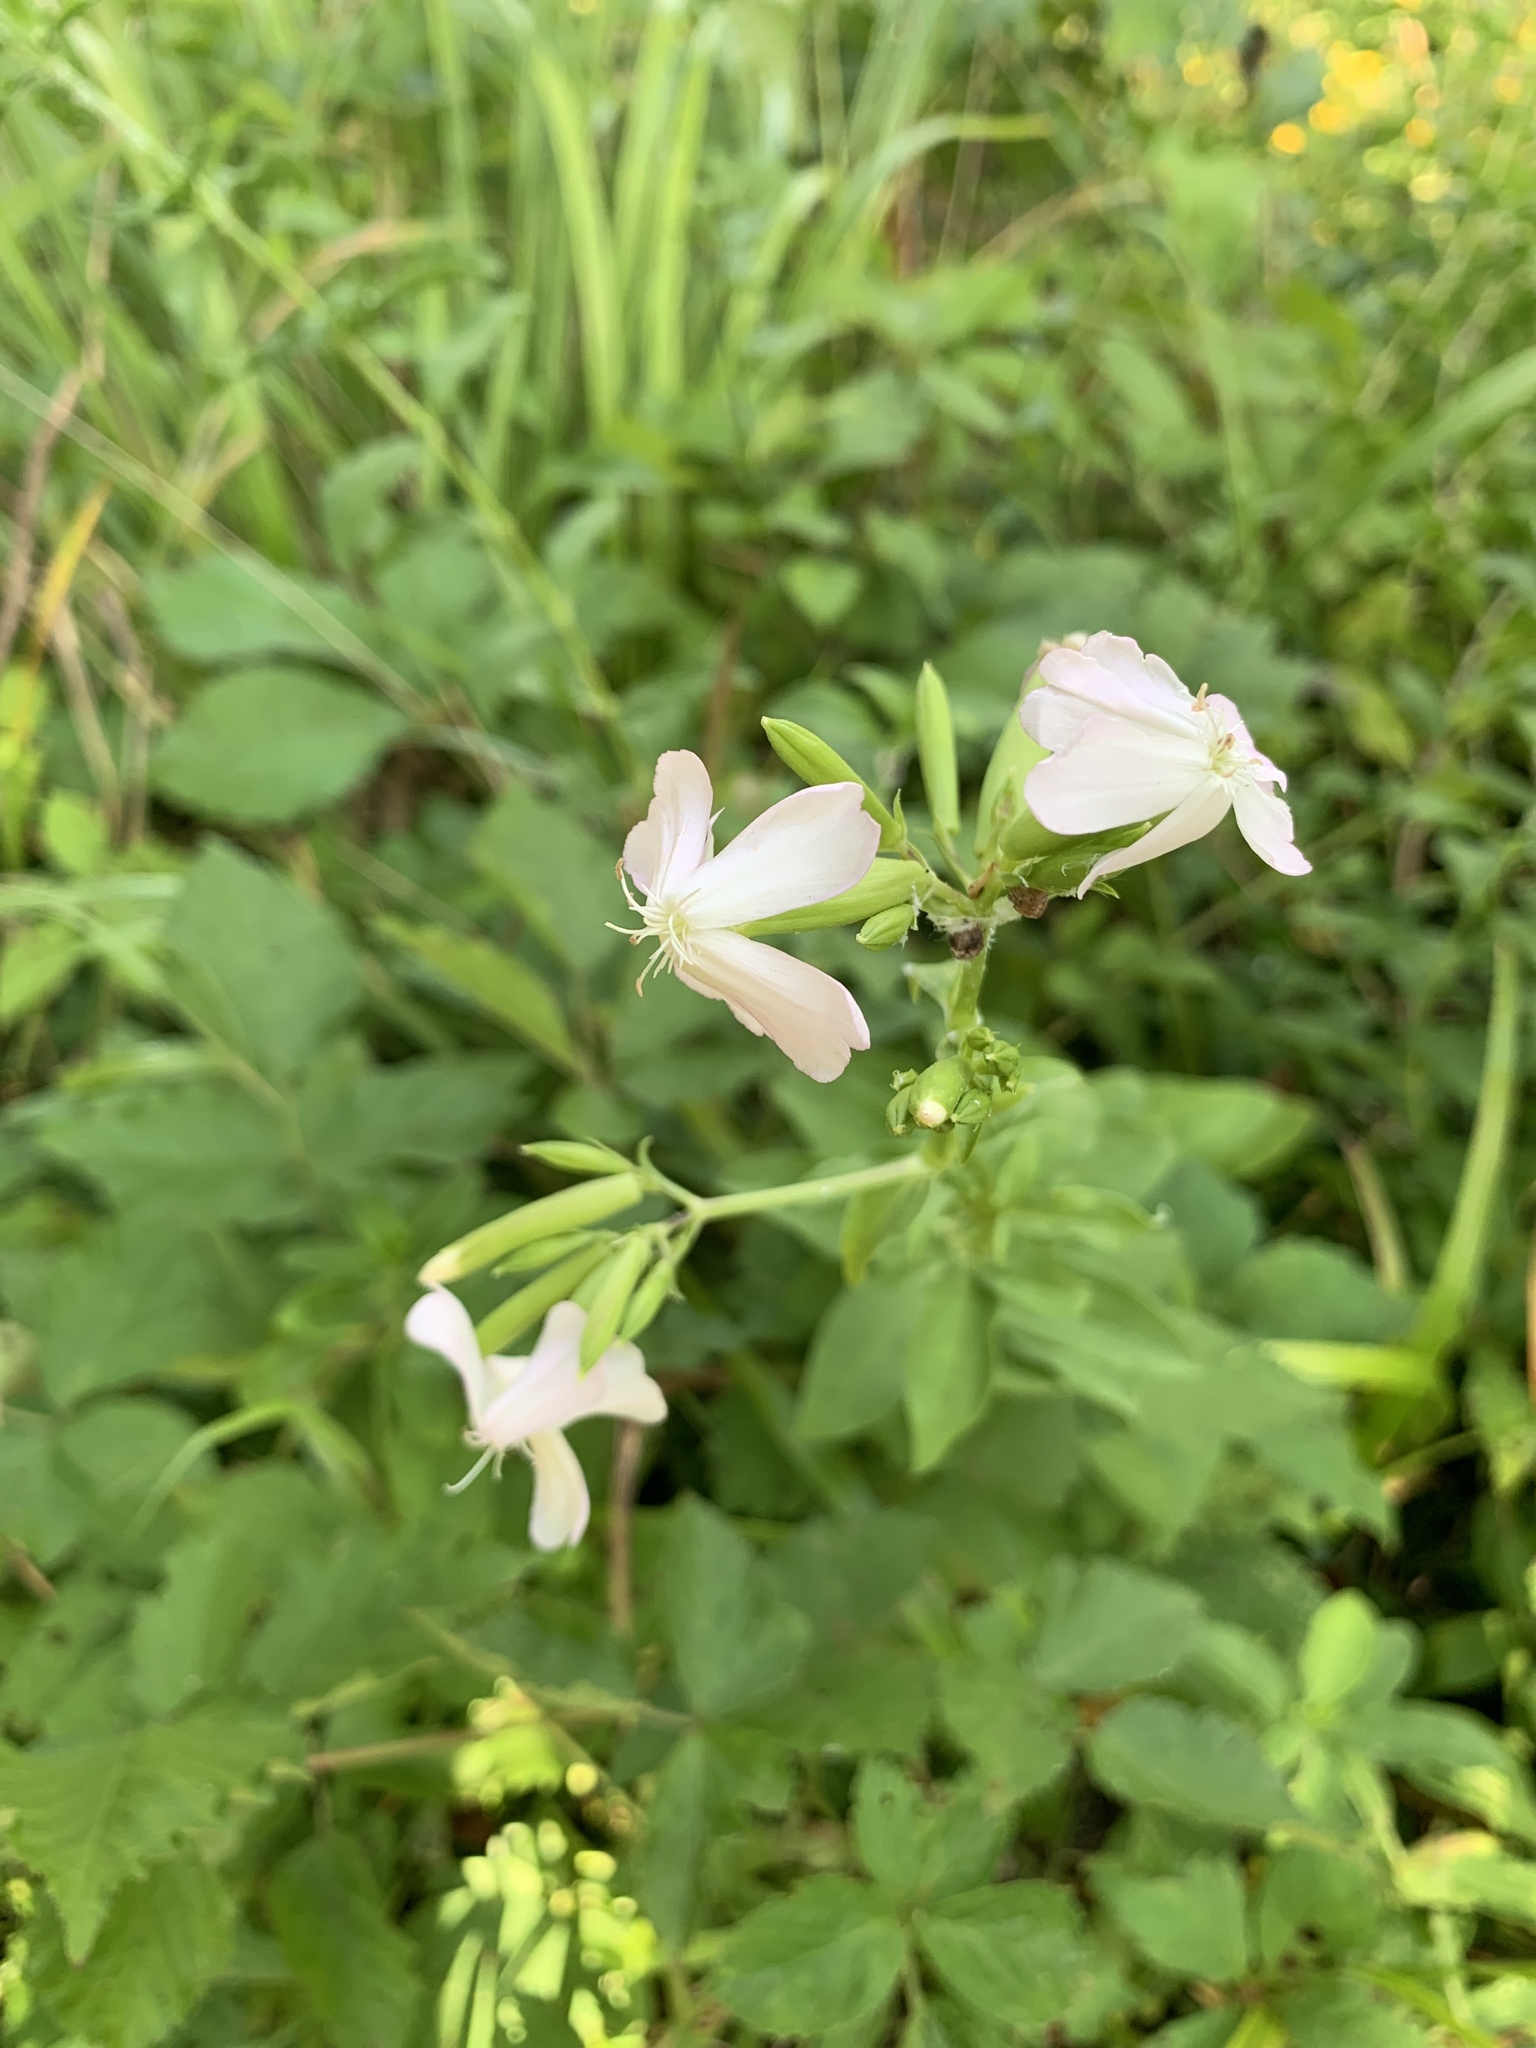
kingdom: Plantae
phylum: Tracheophyta
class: Magnoliopsida
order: Caryophyllales
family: Caryophyllaceae
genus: Saponaria
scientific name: Saponaria officinalis
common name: Soapwort
